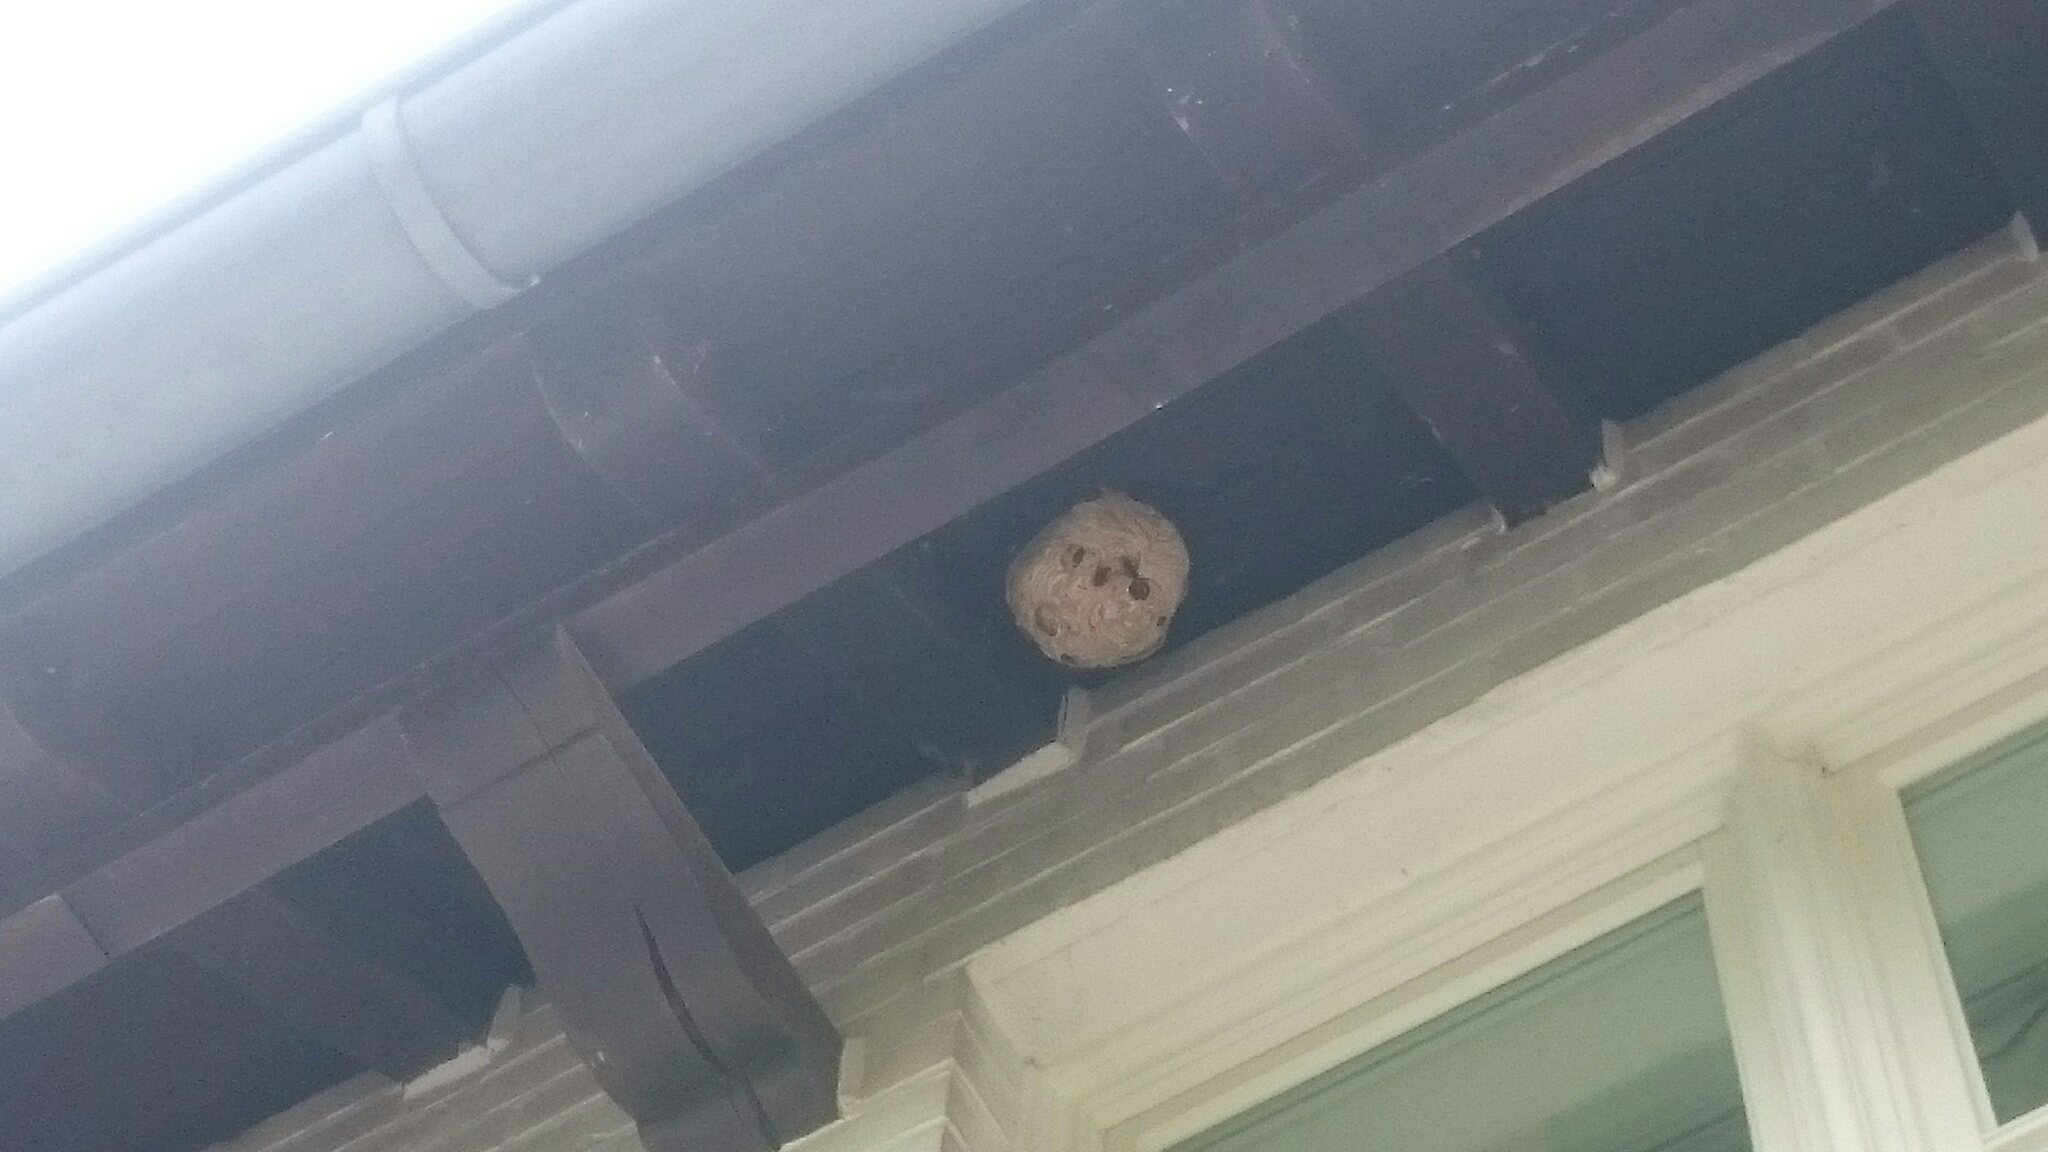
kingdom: Animalia
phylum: Arthropoda
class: Insecta
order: Hymenoptera
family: Vespidae
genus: Vespa
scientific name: Vespa velutina
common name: Asian hornet
